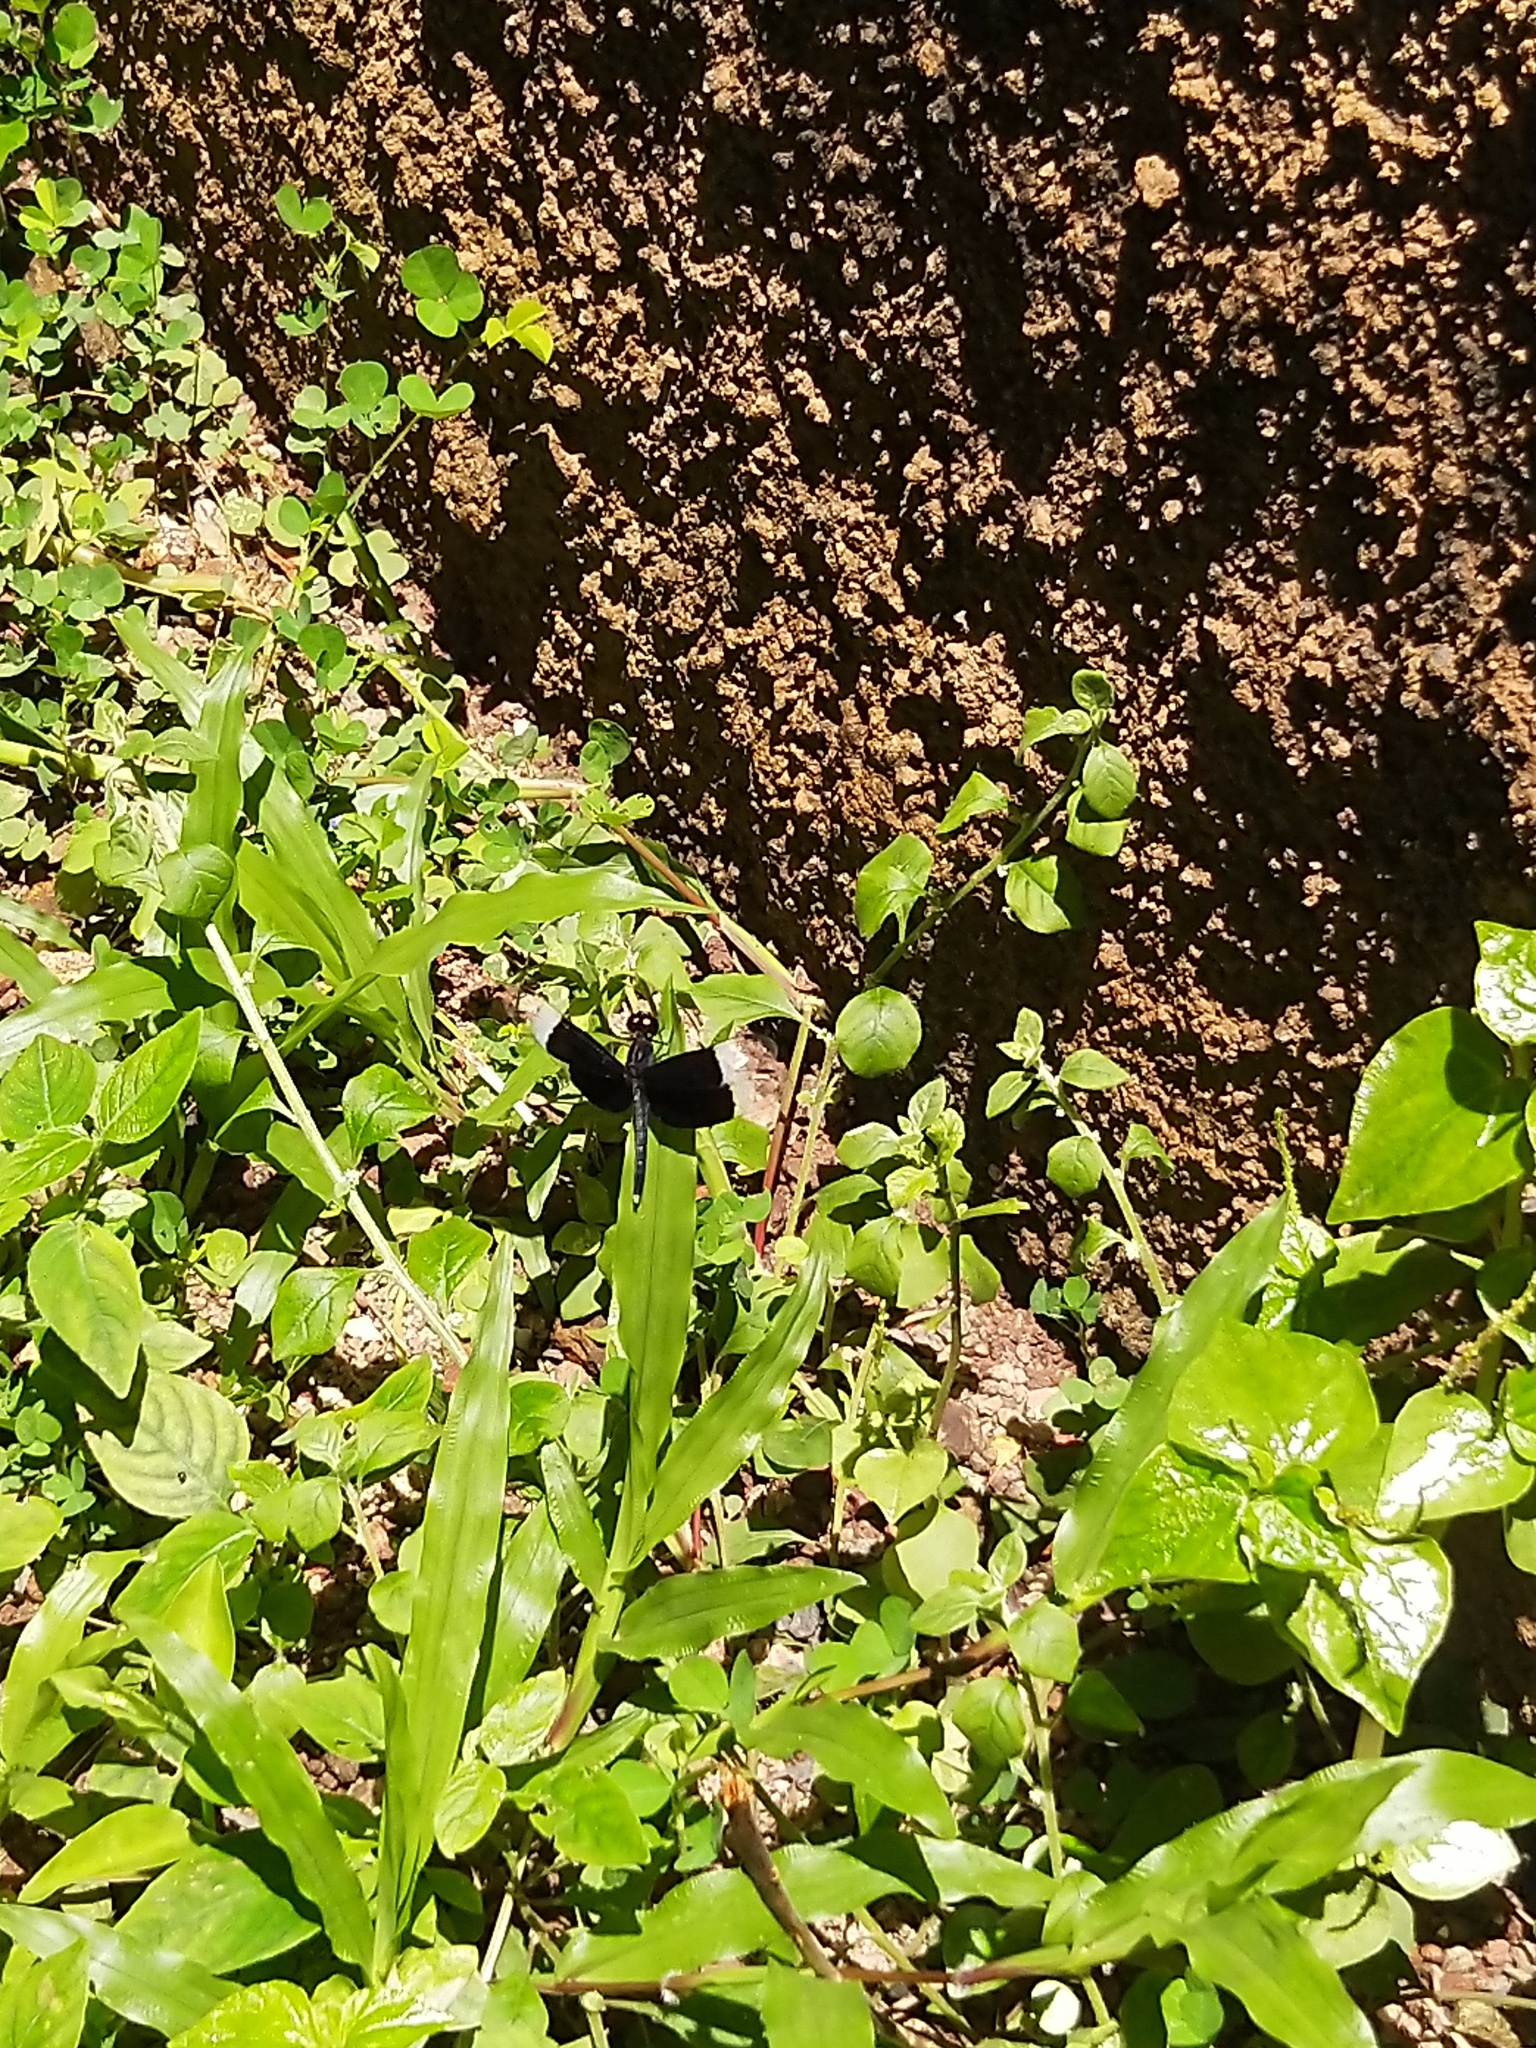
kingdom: Animalia
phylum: Arthropoda
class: Insecta
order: Odonata
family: Libellulidae
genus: Neurothemis
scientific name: Neurothemis tullia
